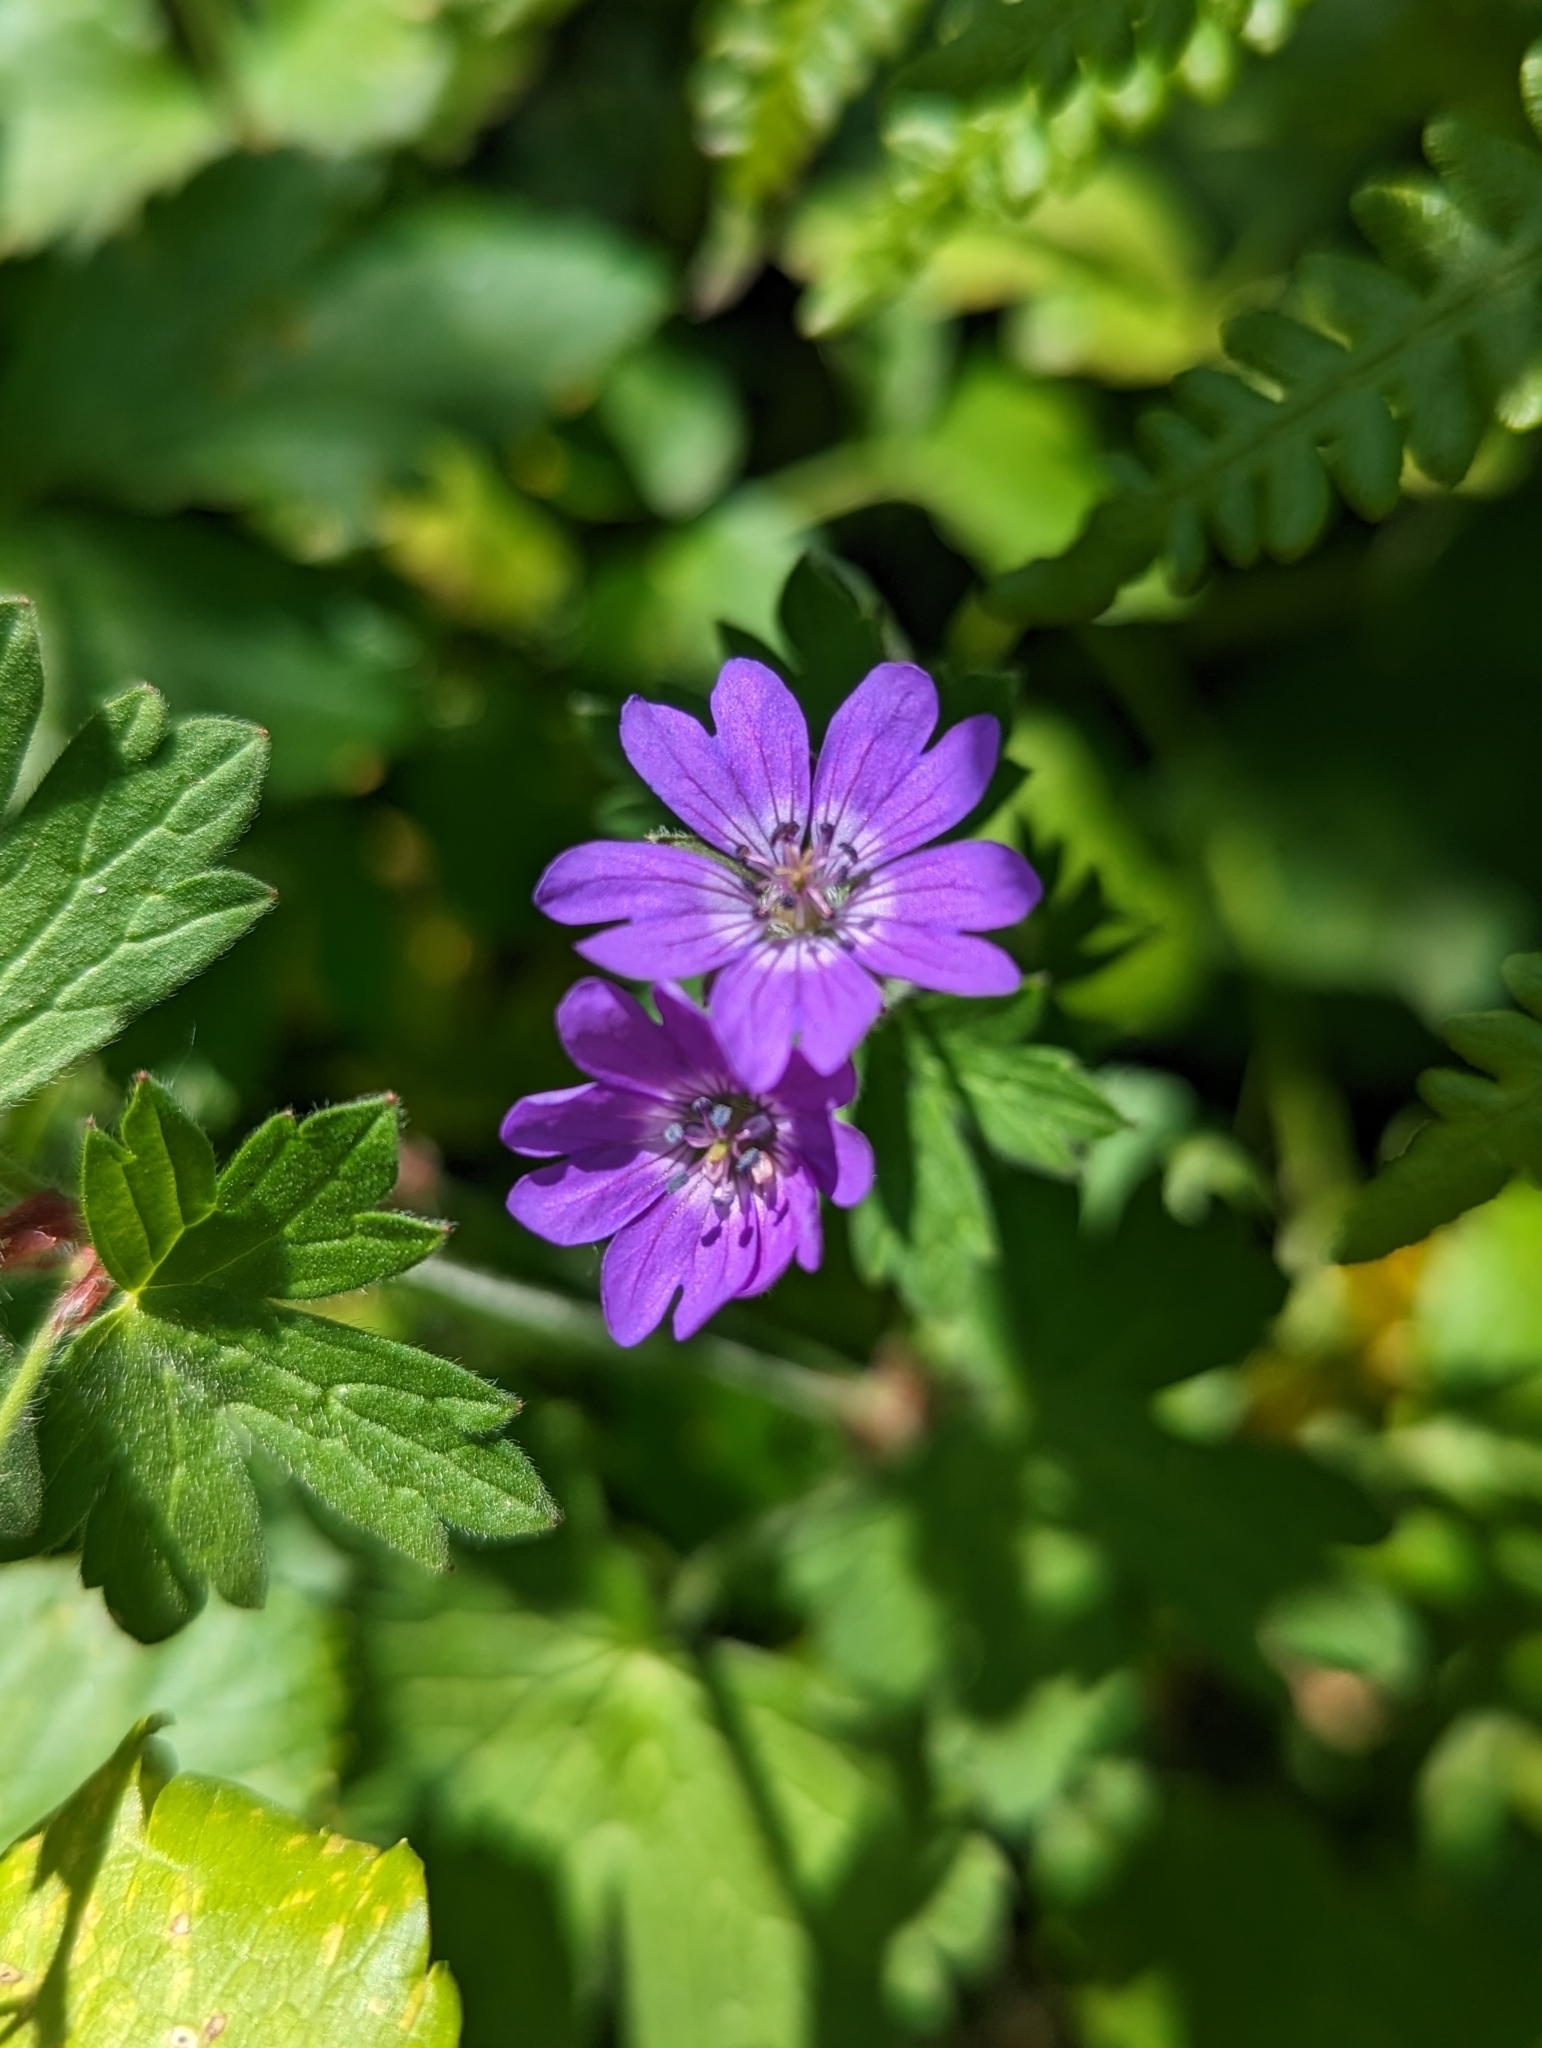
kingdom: Plantae
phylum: Tracheophyta
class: Magnoliopsida
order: Geraniales
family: Geraniaceae
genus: Geranium
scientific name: Geranium pyrenaicum
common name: Hedgerow crane's-bill
